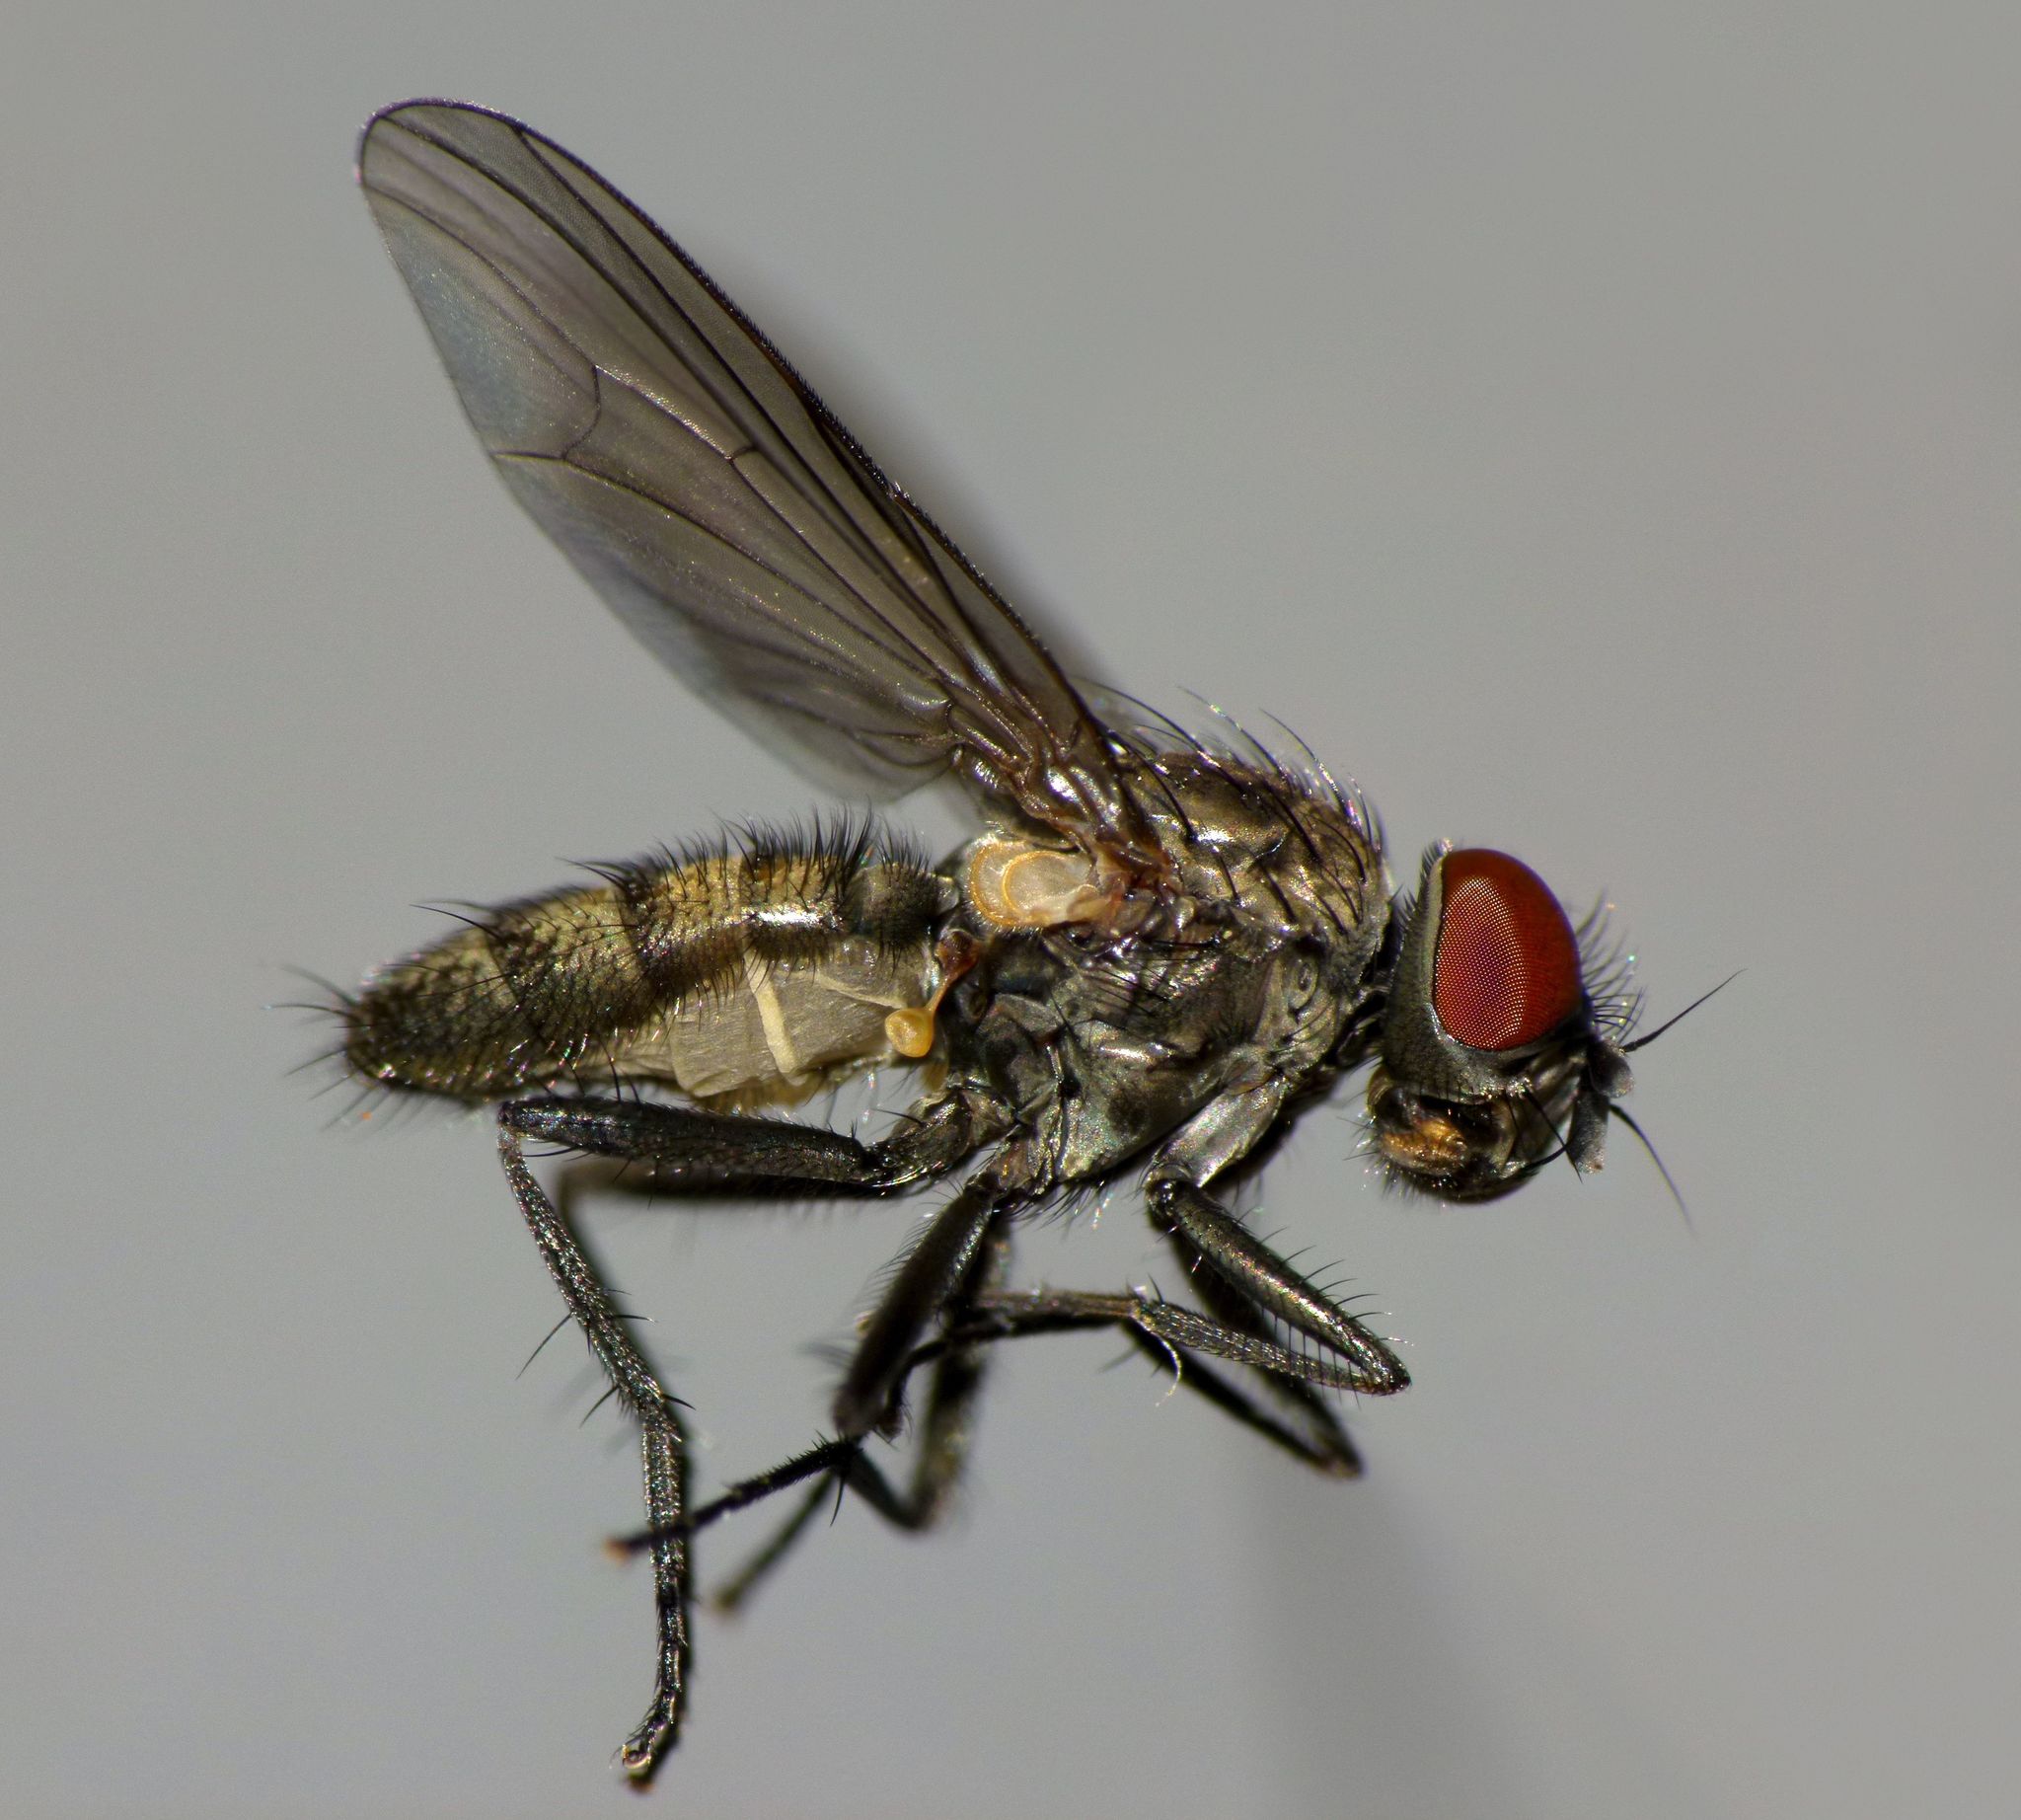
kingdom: Animalia
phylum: Arthropoda
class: Insecta
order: Diptera
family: Fanniidae
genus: Fannia
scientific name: Fannia canicularis
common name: Little house fly
